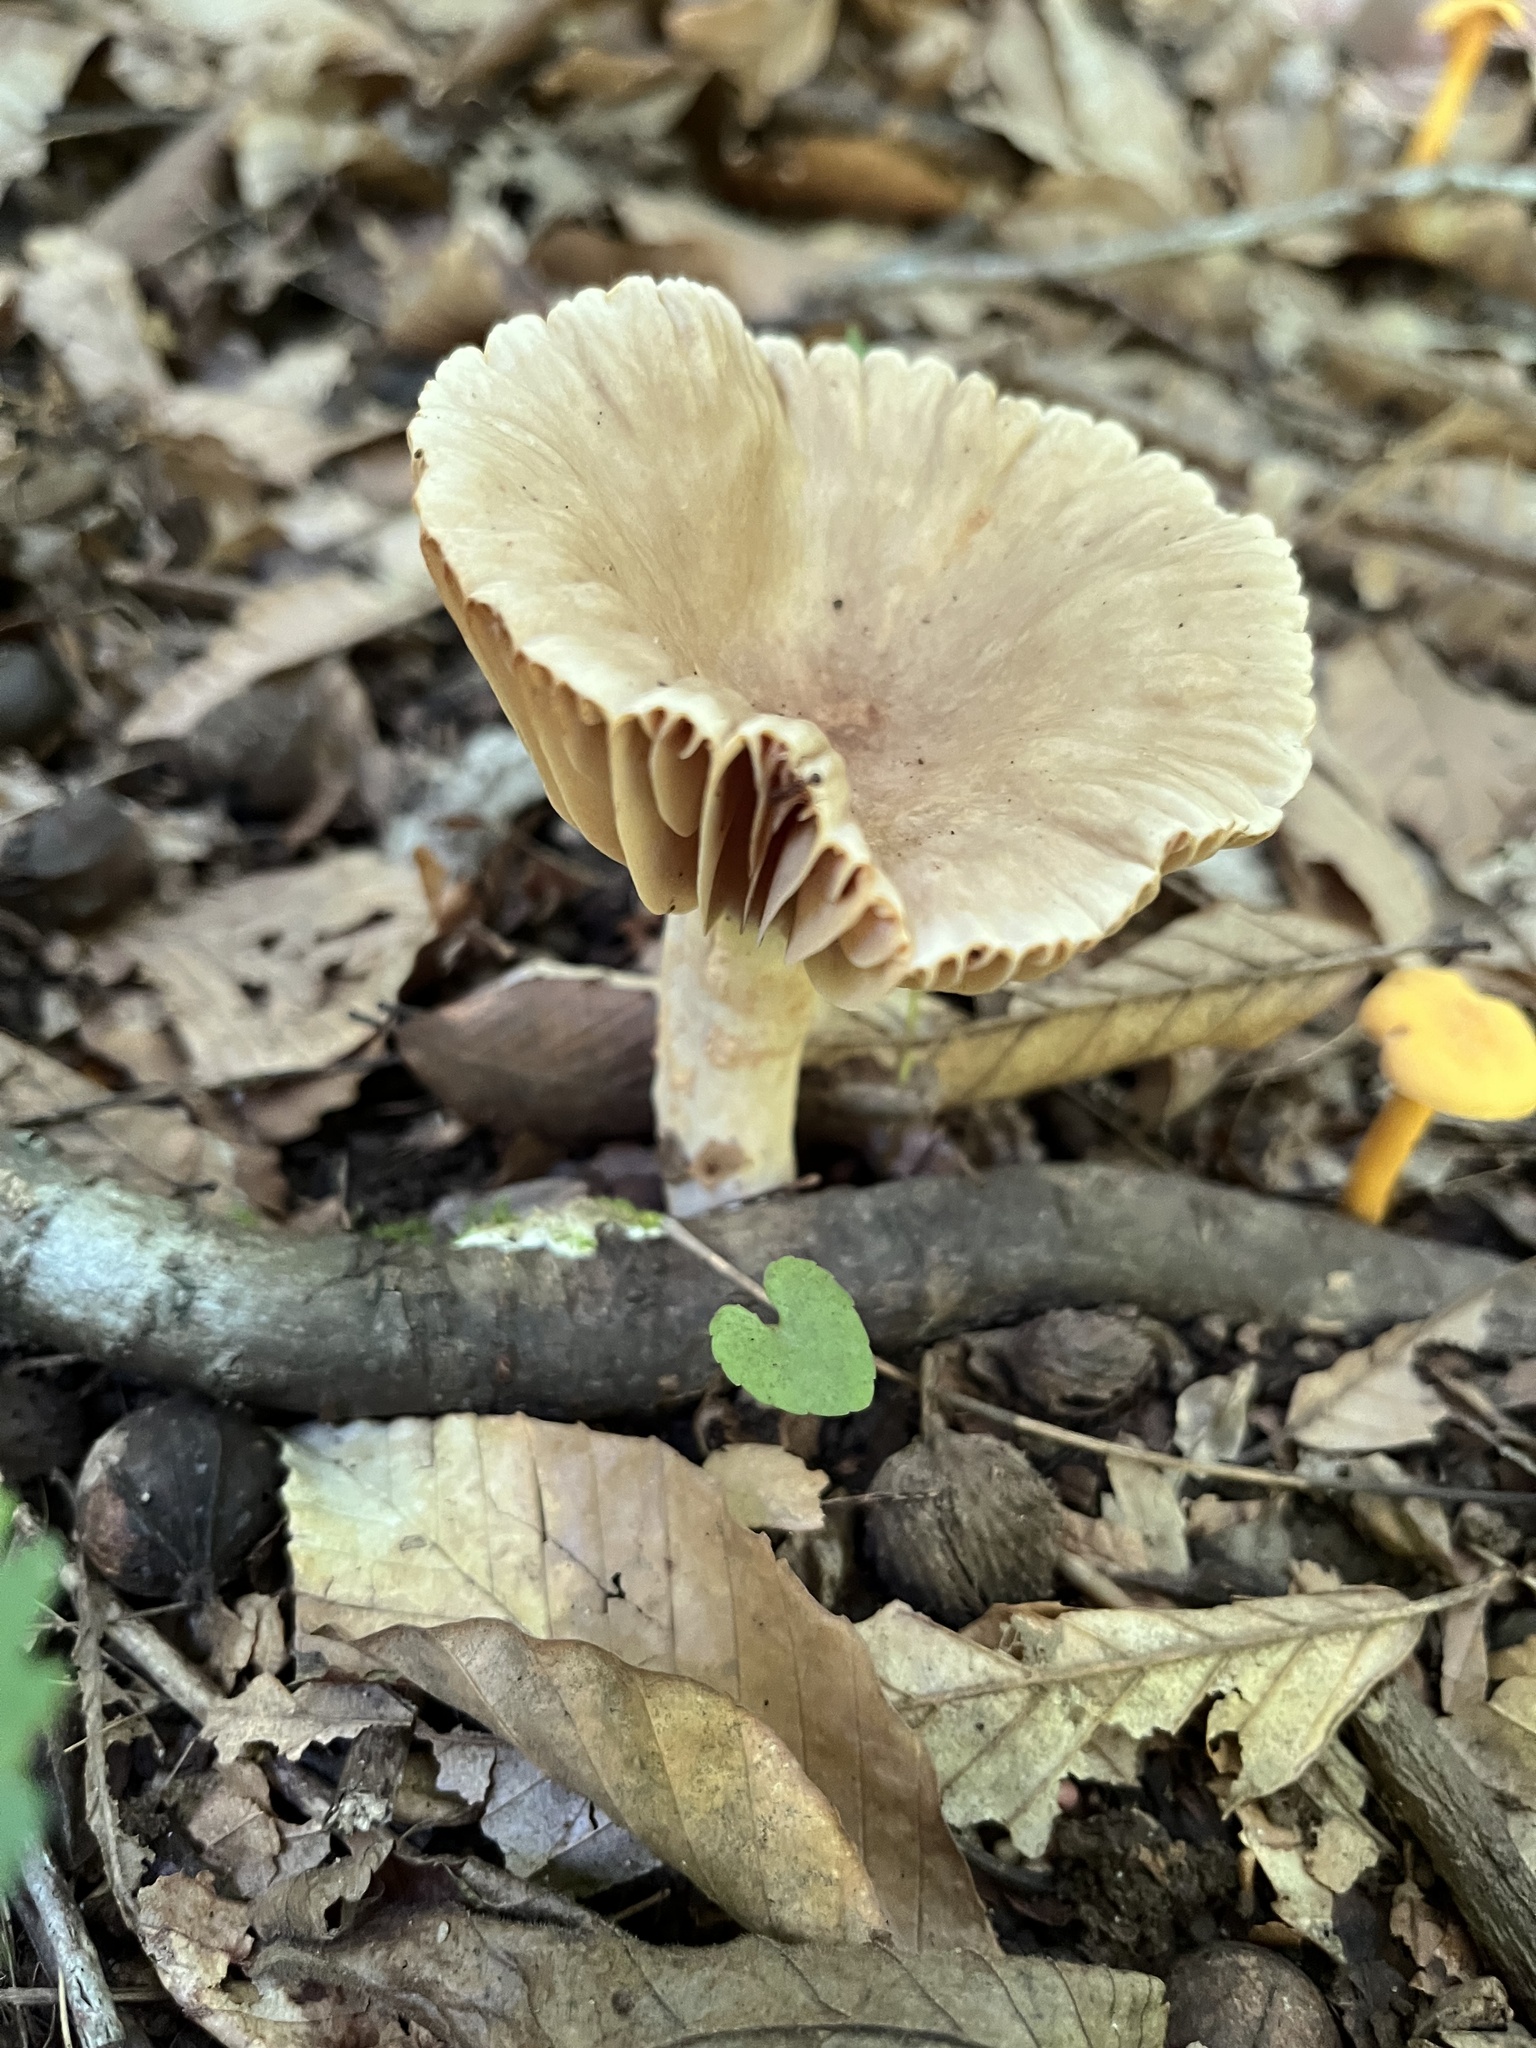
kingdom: Fungi
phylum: Basidiomycota
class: Agaricomycetes
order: Russulales
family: Russulaceae
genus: Lactarius
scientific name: Lactarius subplinthogalus
